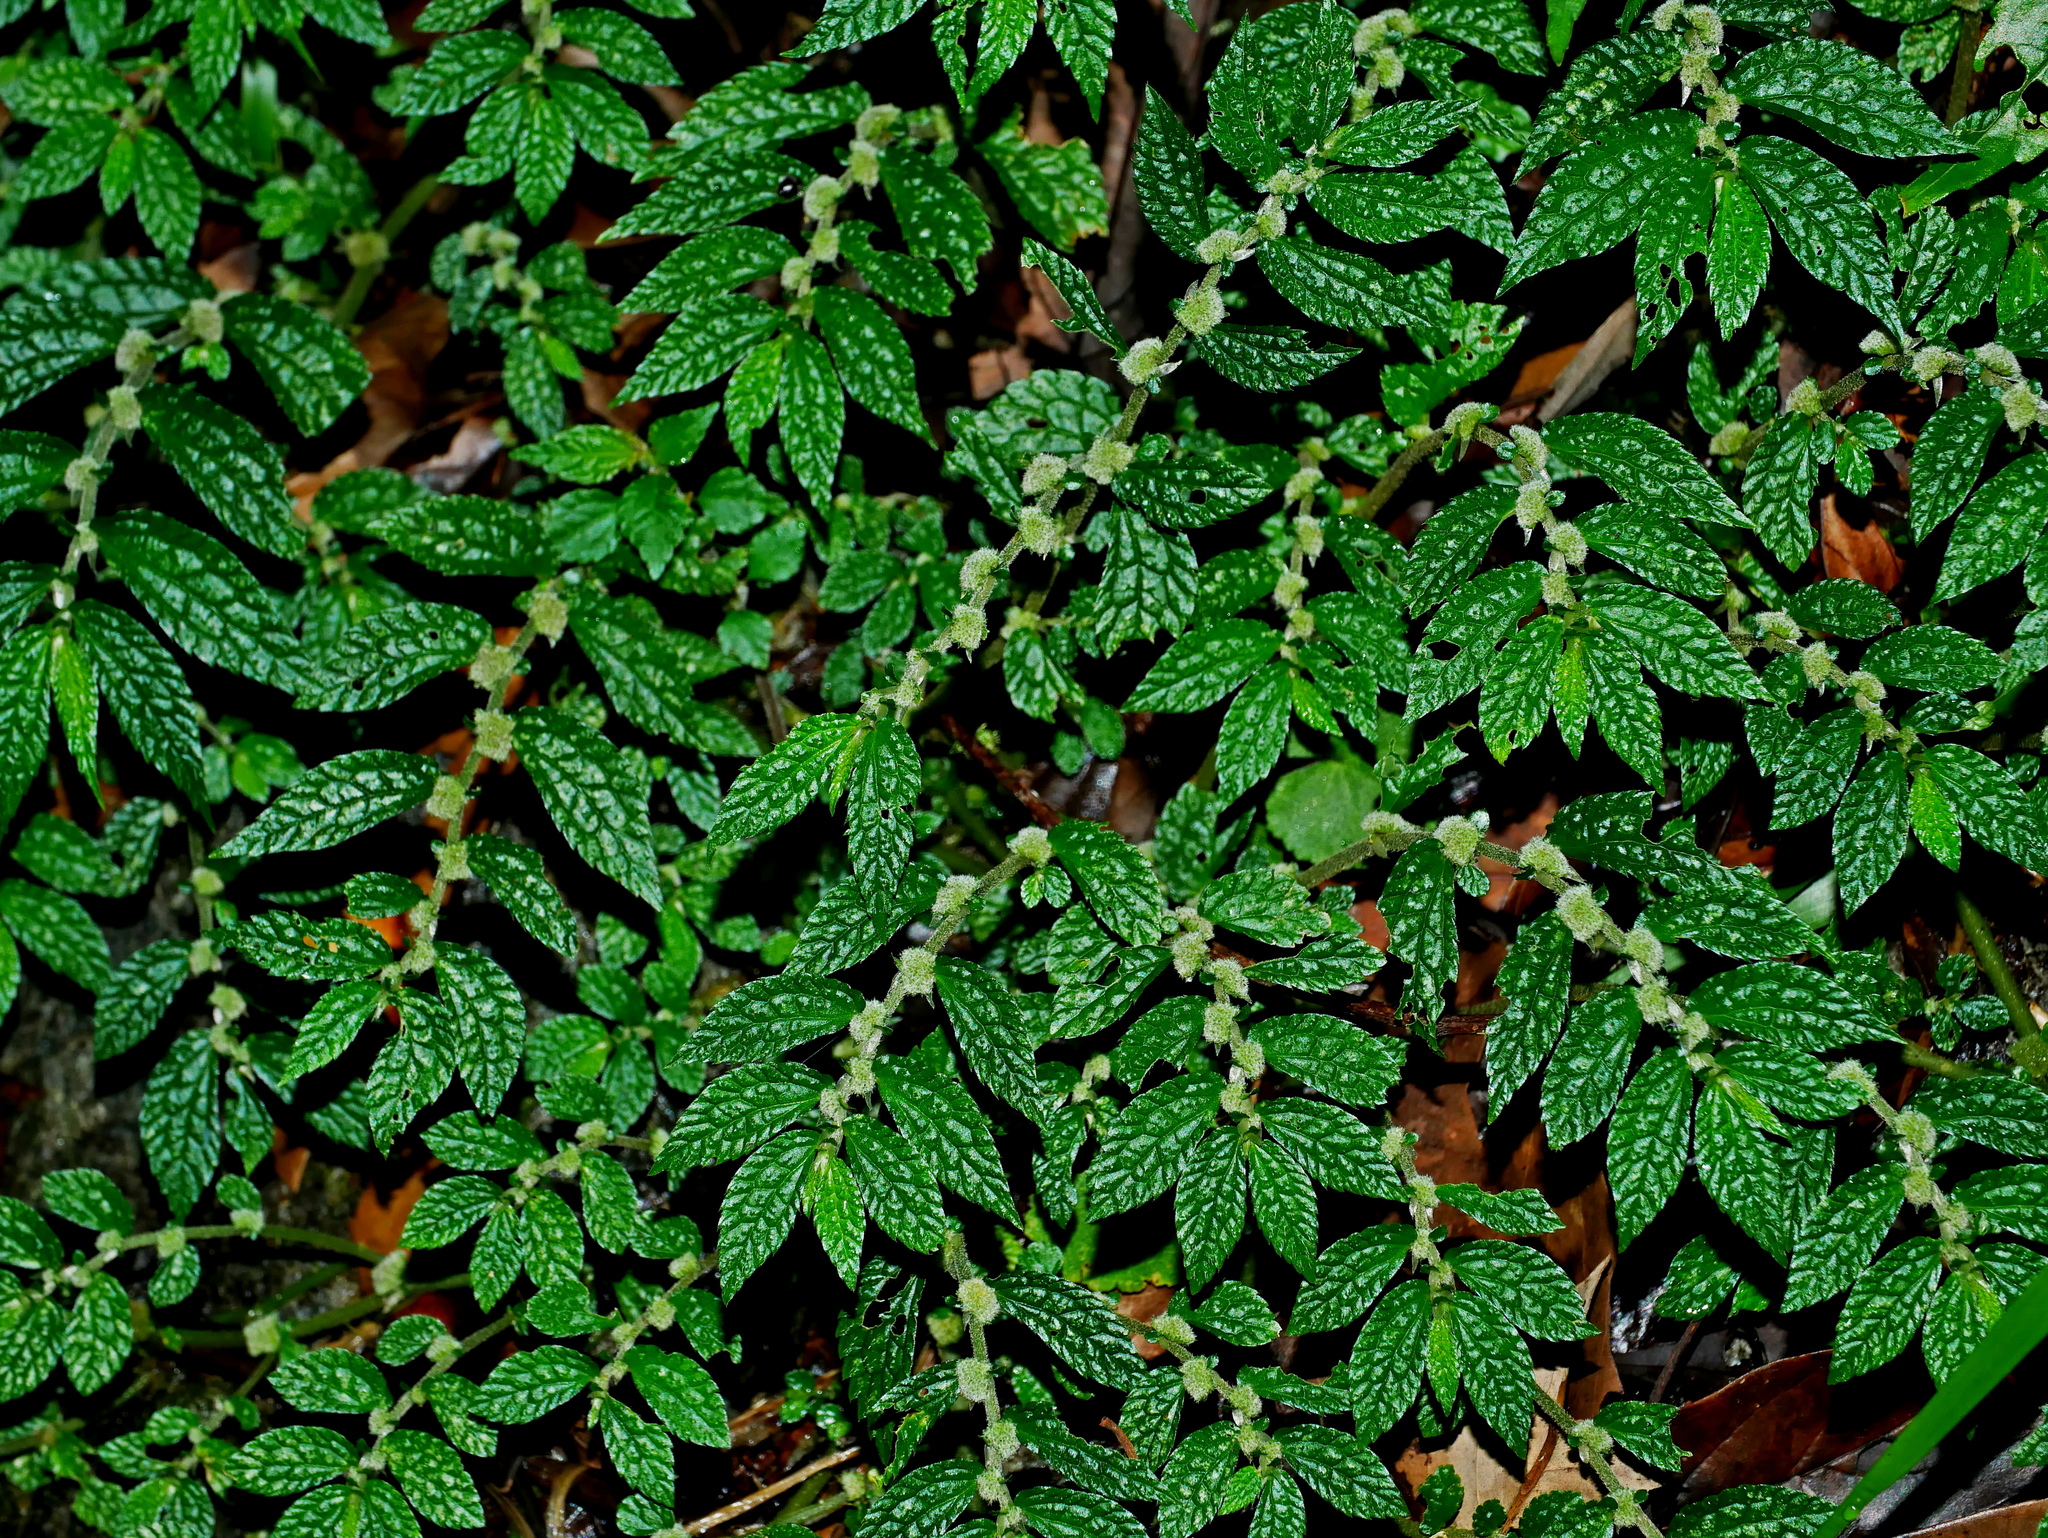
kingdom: Plantae
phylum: Tracheophyta
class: Magnoliopsida
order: Rosales
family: Urticaceae
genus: Elatostema
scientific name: Elatostema parvum
